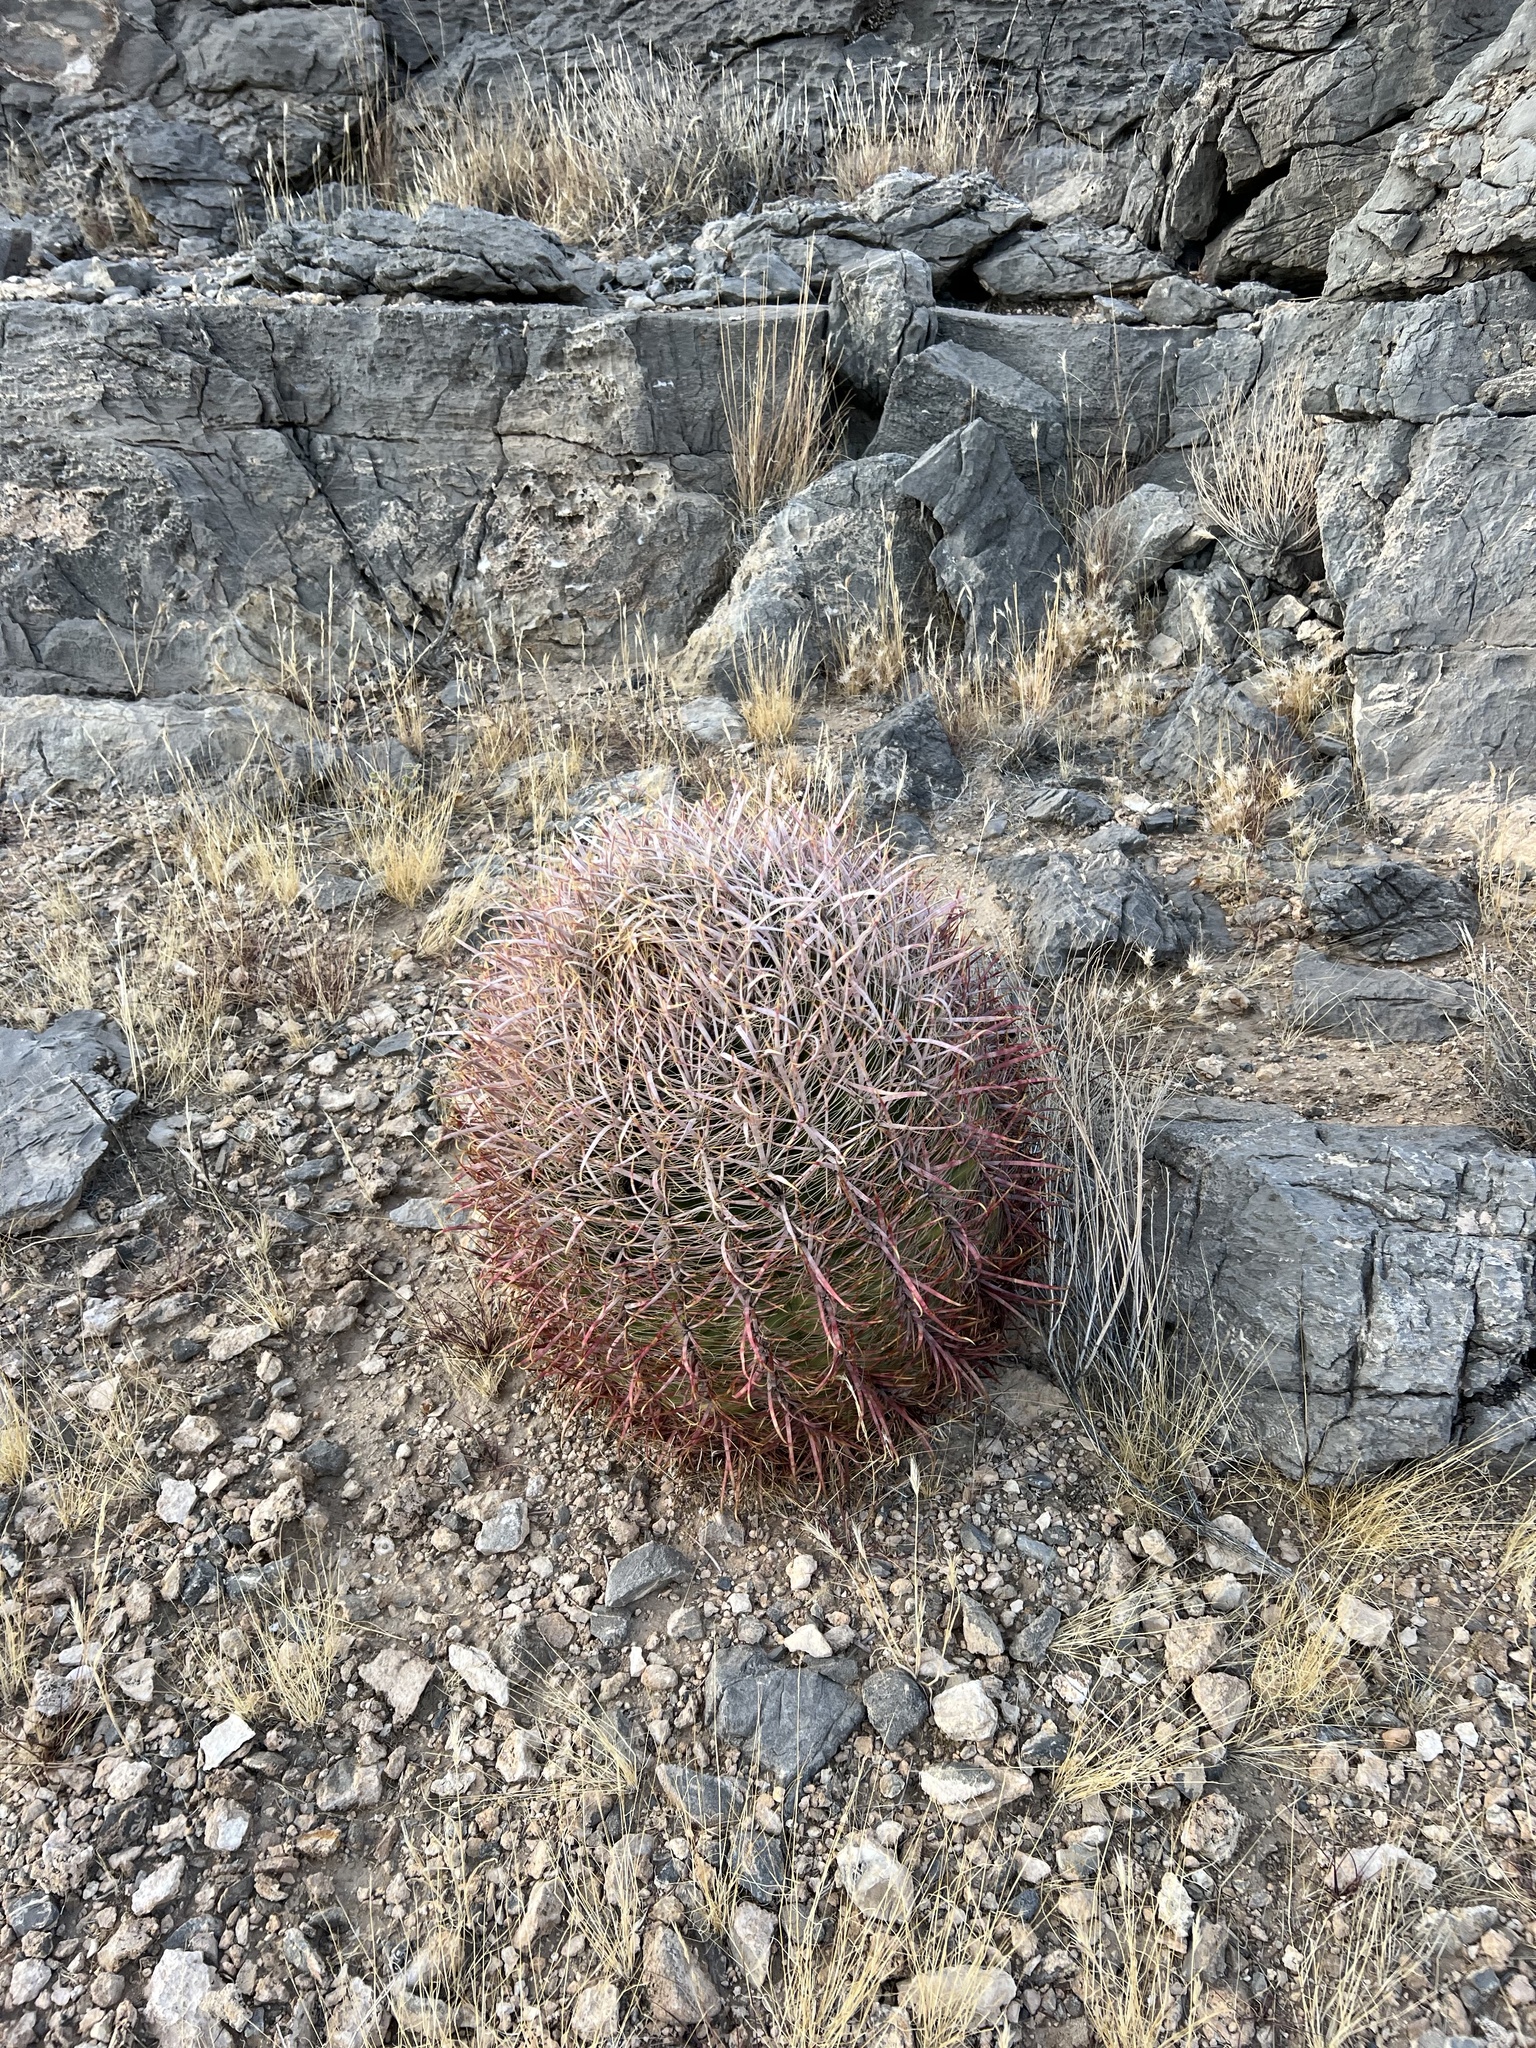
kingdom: Plantae
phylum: Tracheophyta
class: Magnoliopsida
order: Caryophyllales
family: Cactaceae
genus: Ferocactus
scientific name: Ferocactus cylindraceus
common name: California barrel cactus
